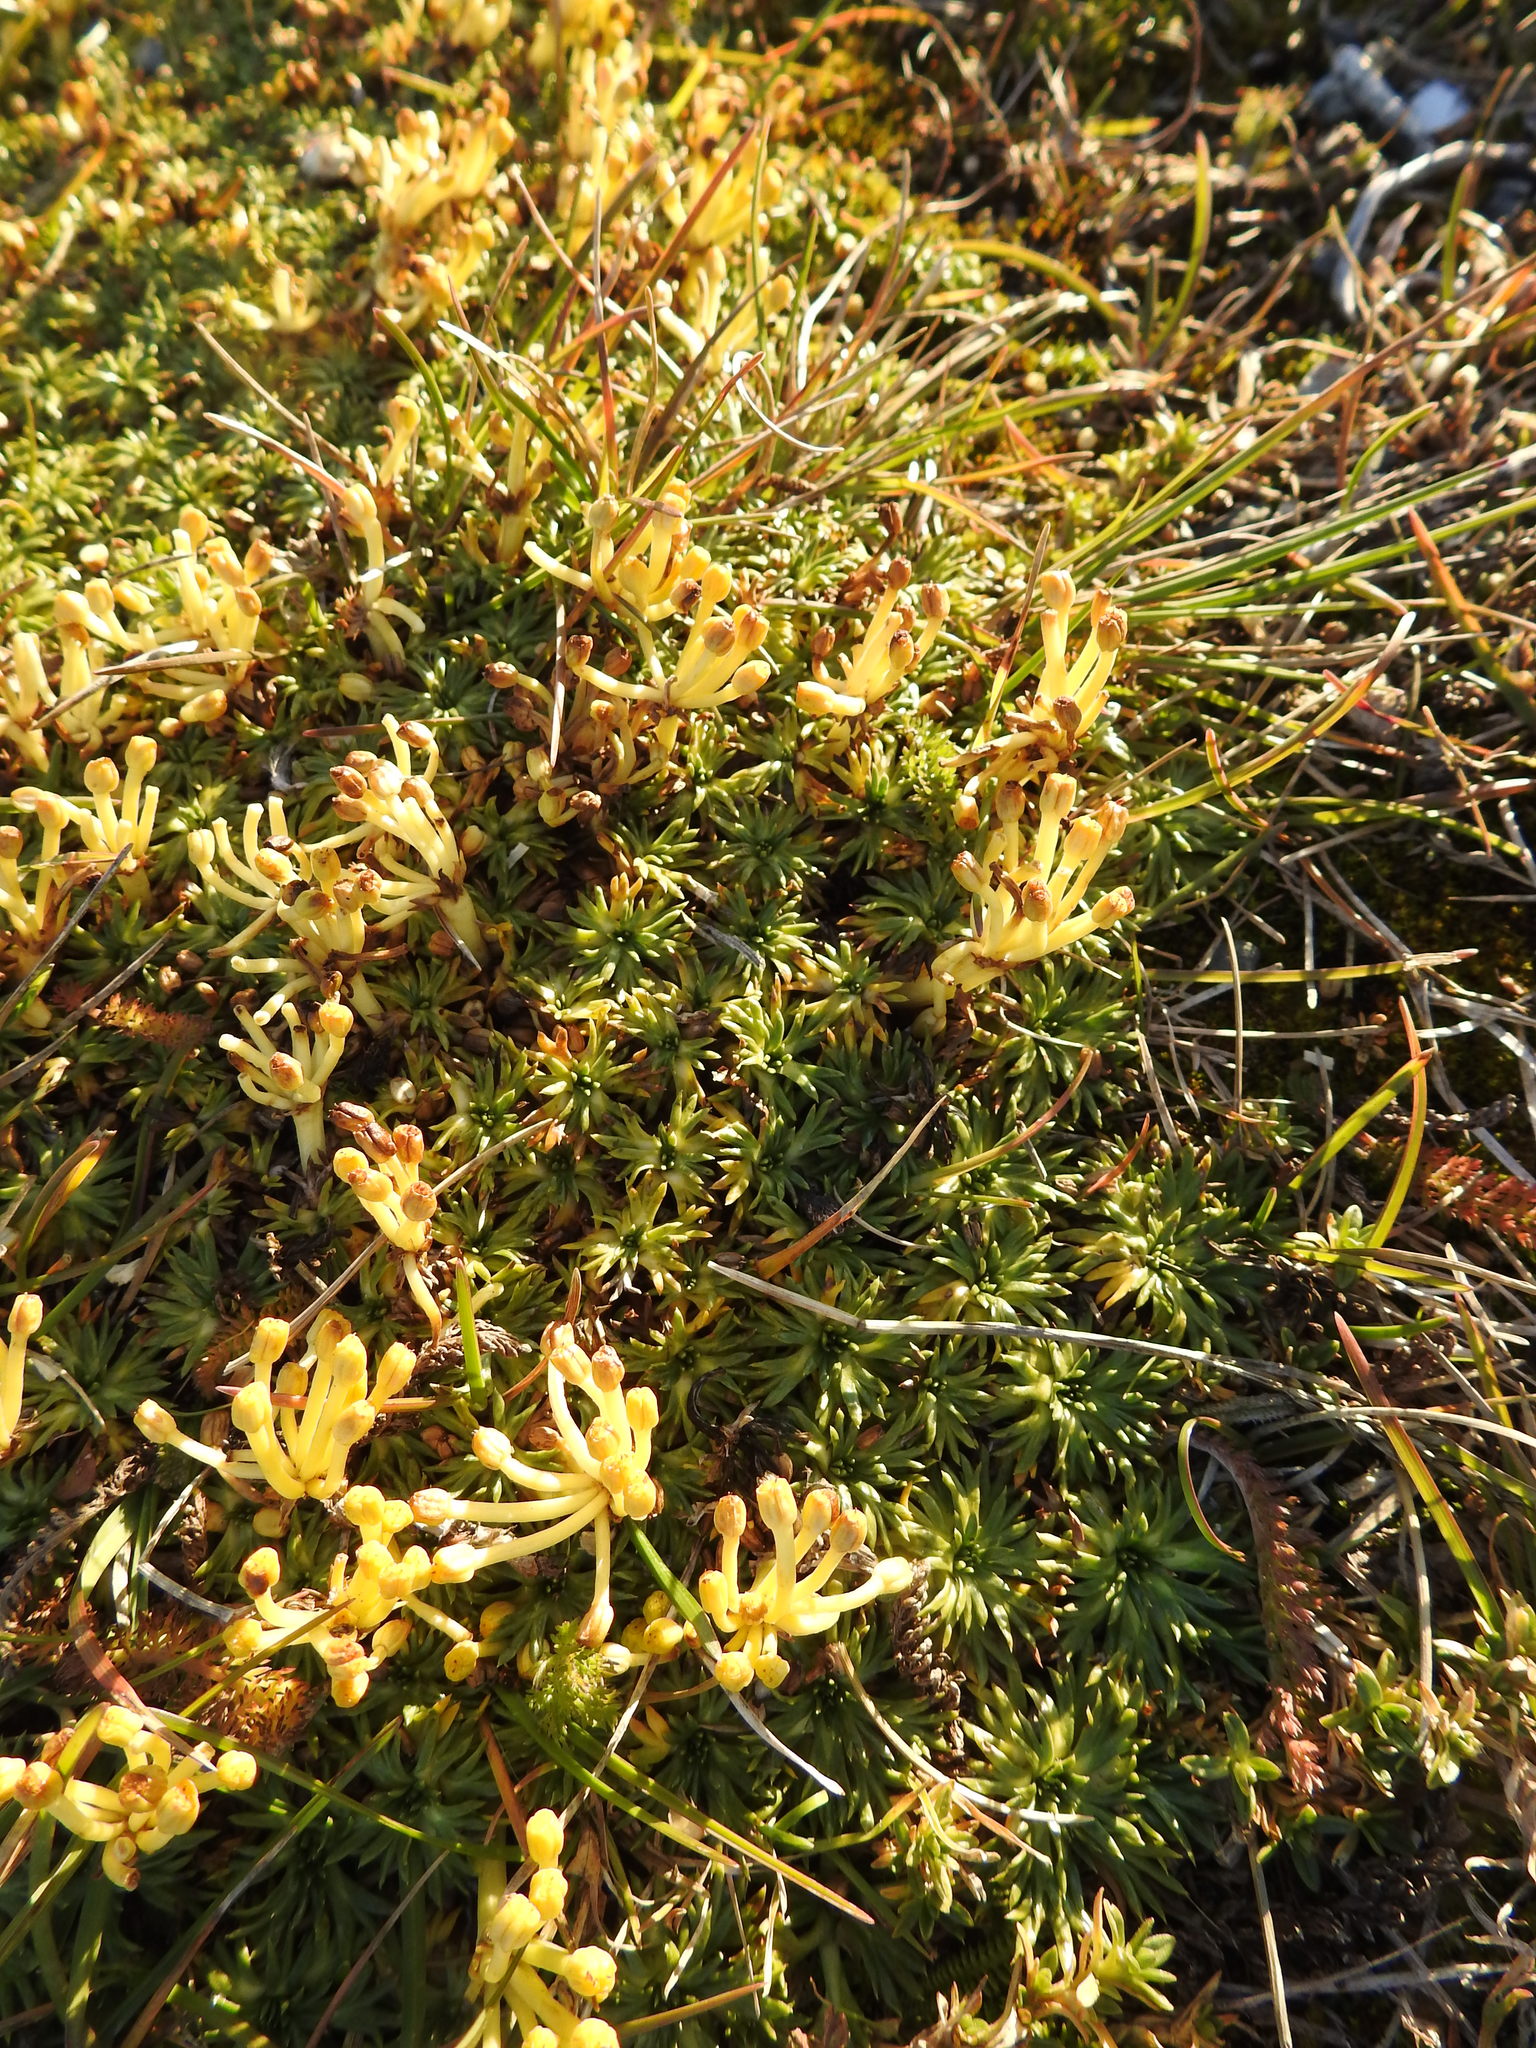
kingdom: Plantae
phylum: Tracheophyta
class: Magnoliopsida
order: Apiales
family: Apiaceae
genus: Azorella
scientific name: Azorella trifurcata
